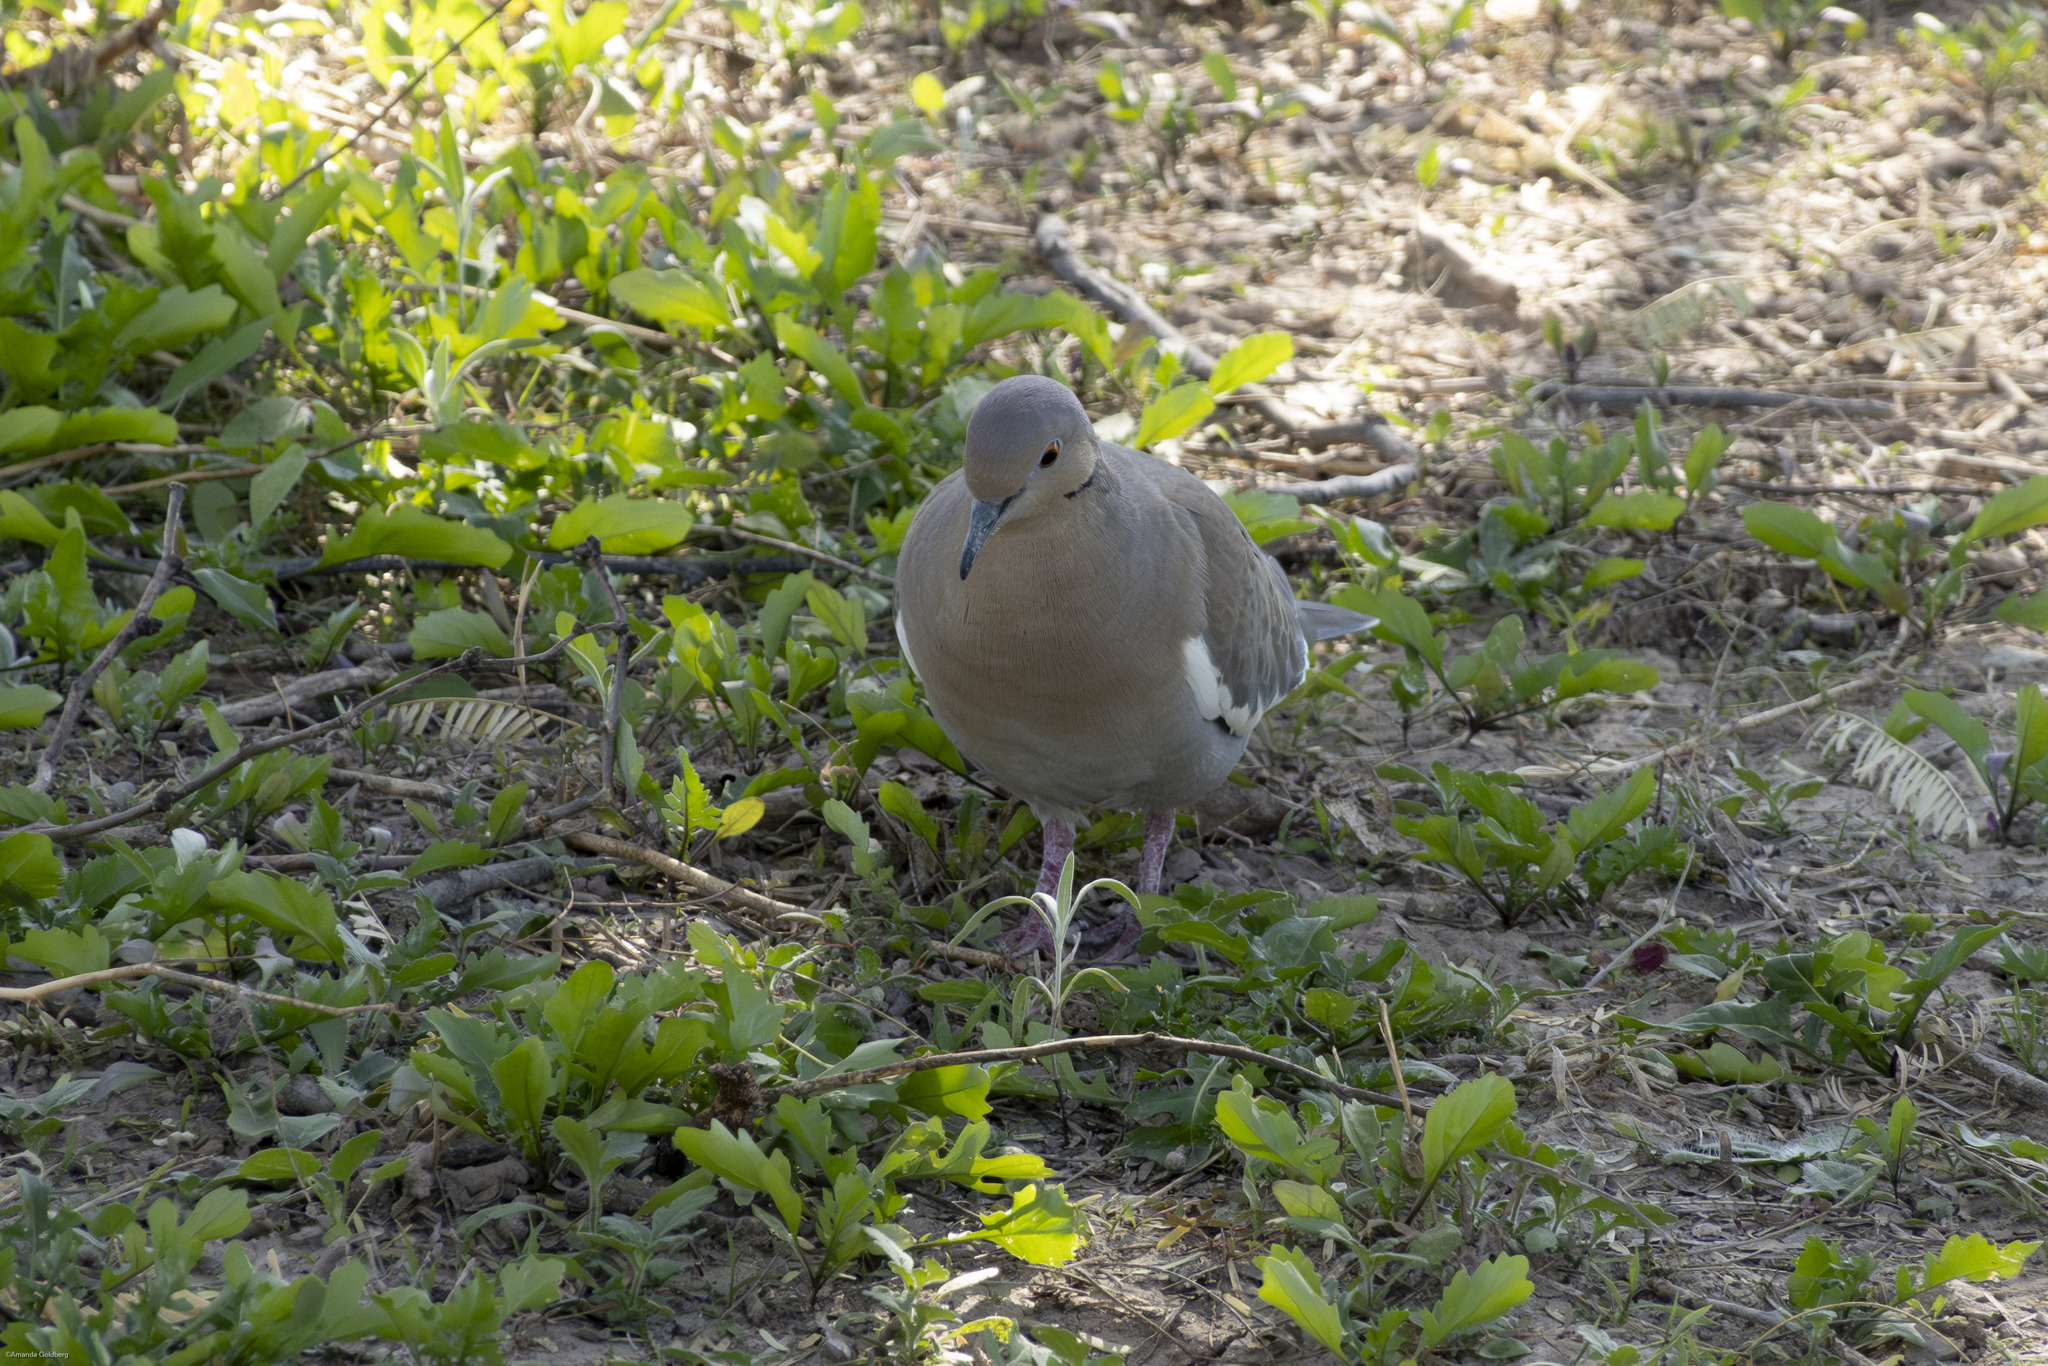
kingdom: Animalia
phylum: Chordata
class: Aves
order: Columbiformes
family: Columbidae
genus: Zenaida
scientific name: Zenaida asiatica
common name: White-winged dove
